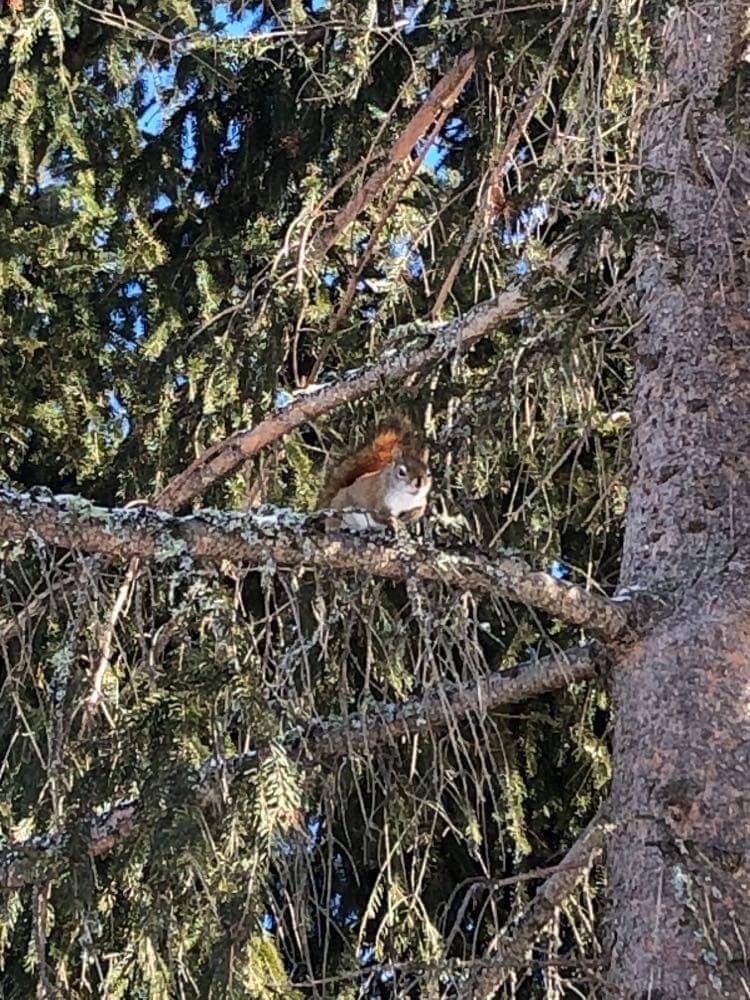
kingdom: Animalia
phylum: Chordata
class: Mammalia
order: Rodentia
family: Sciuridae
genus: Tamiasciurus
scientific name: Tamiasciurus hudsonicus
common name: Red squirrel
